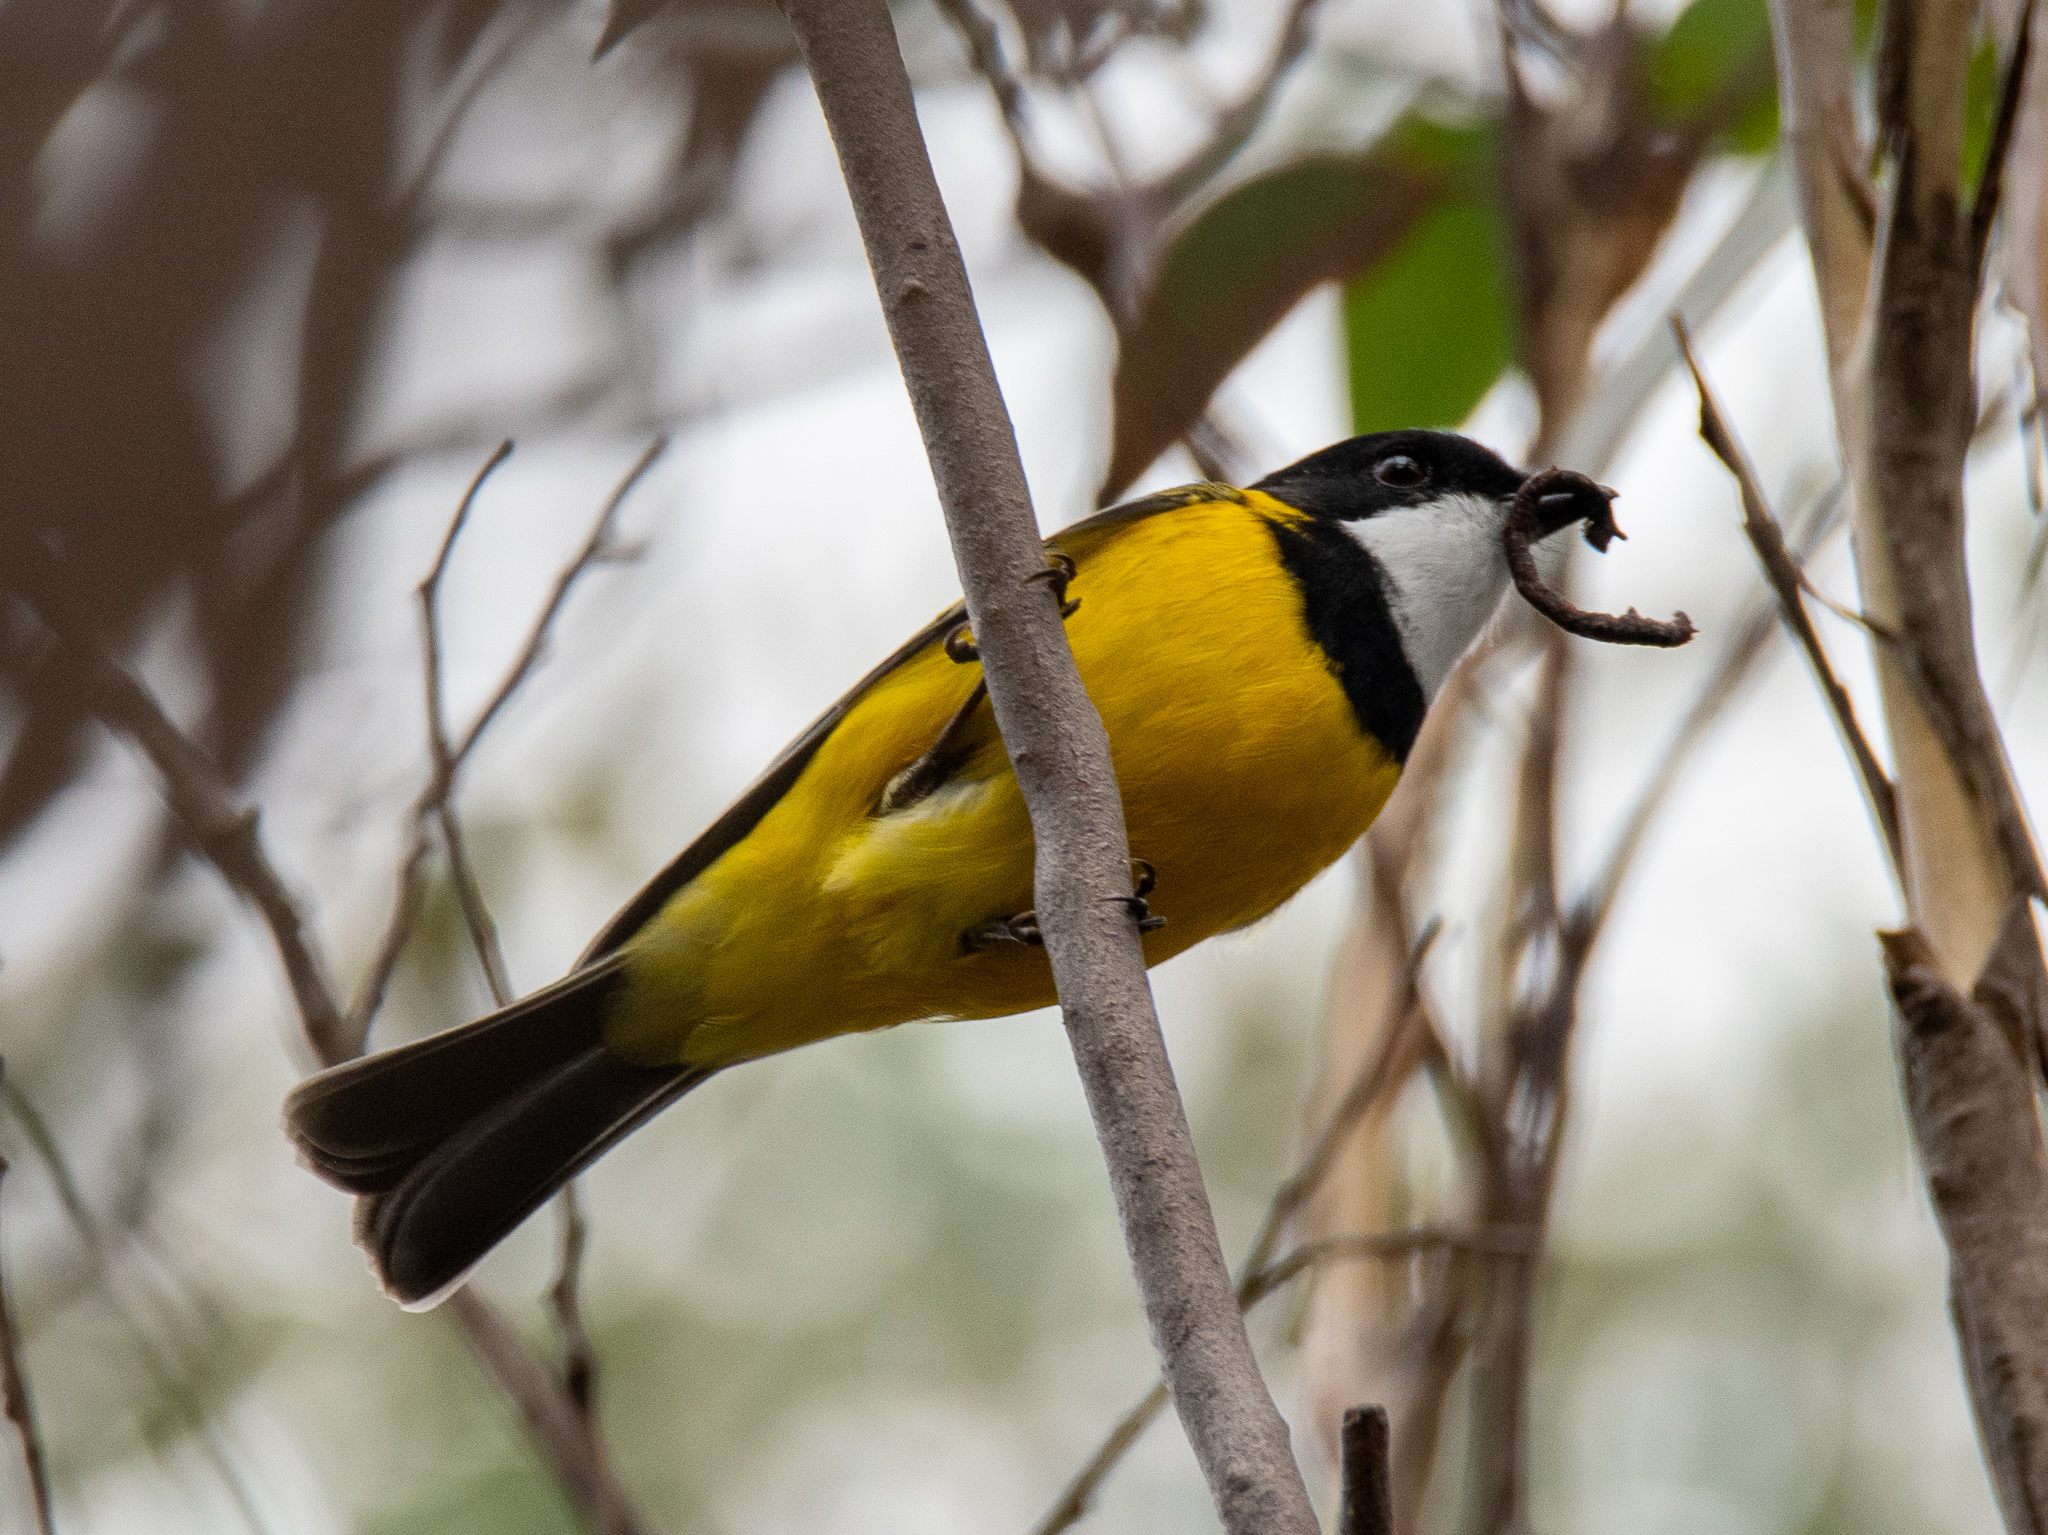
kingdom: Animalia
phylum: Chordata
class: Aves
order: Passeriformes
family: Pachycephalidae
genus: Pachycephala
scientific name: Pachycephala pectoralis
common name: Australian golden whistler
